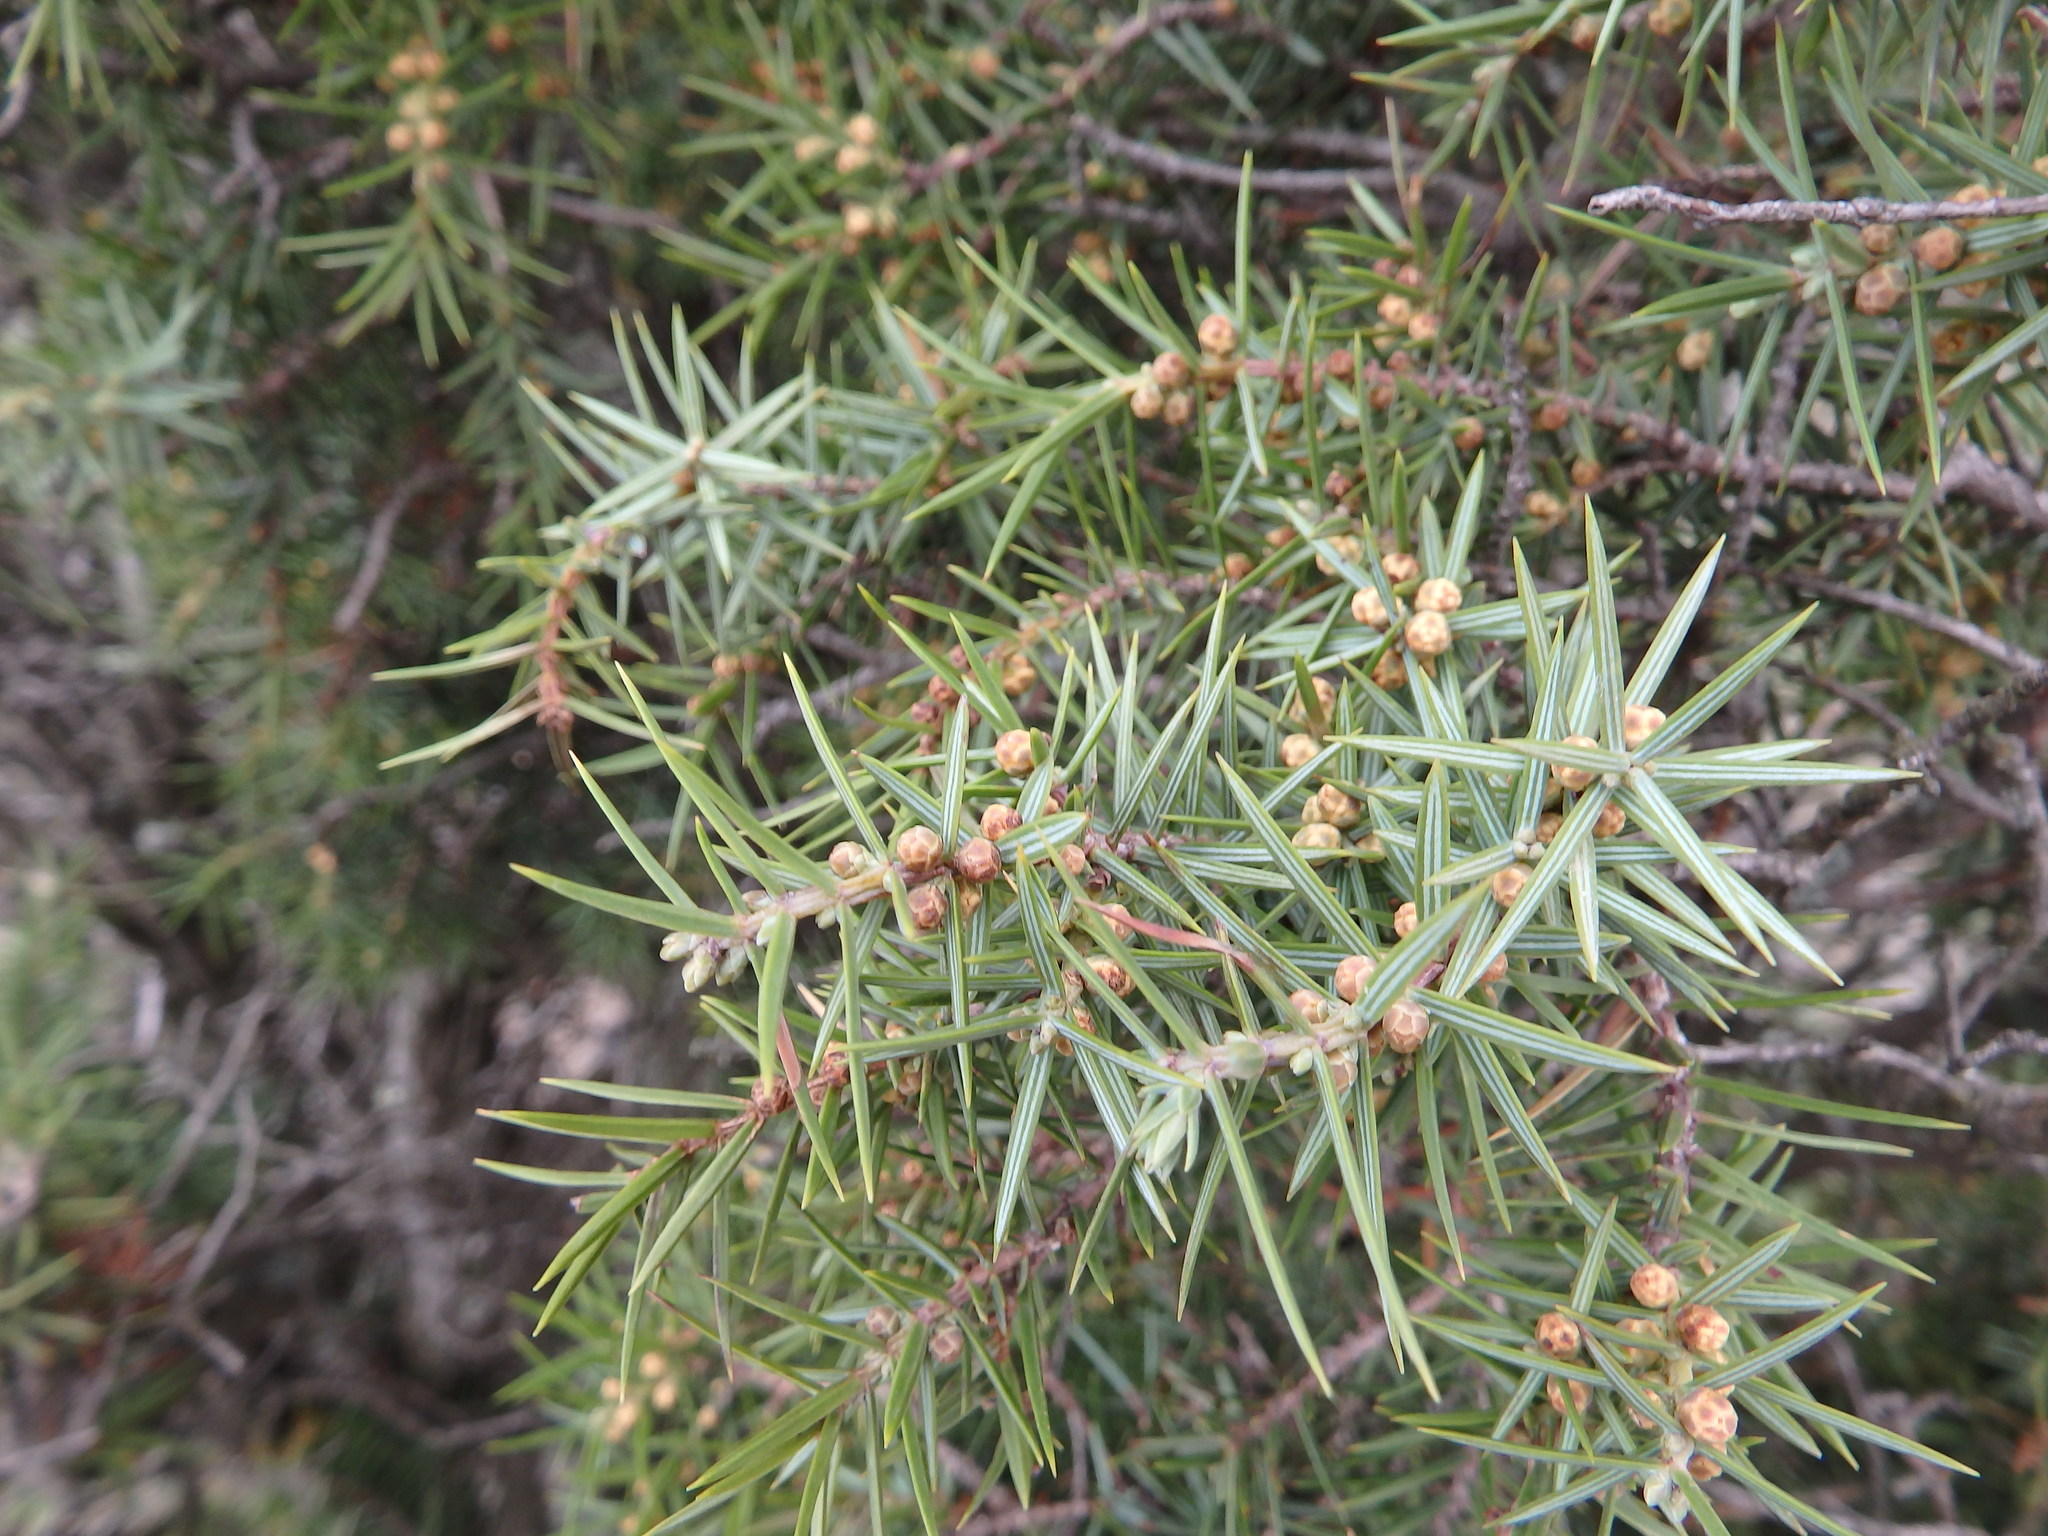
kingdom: Plantae
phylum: Tracheophyta
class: Pinopsida
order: Pinales
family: Cupressaceae
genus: Juniperus
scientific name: Juniperus oxycedrus
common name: Prickly juniper
